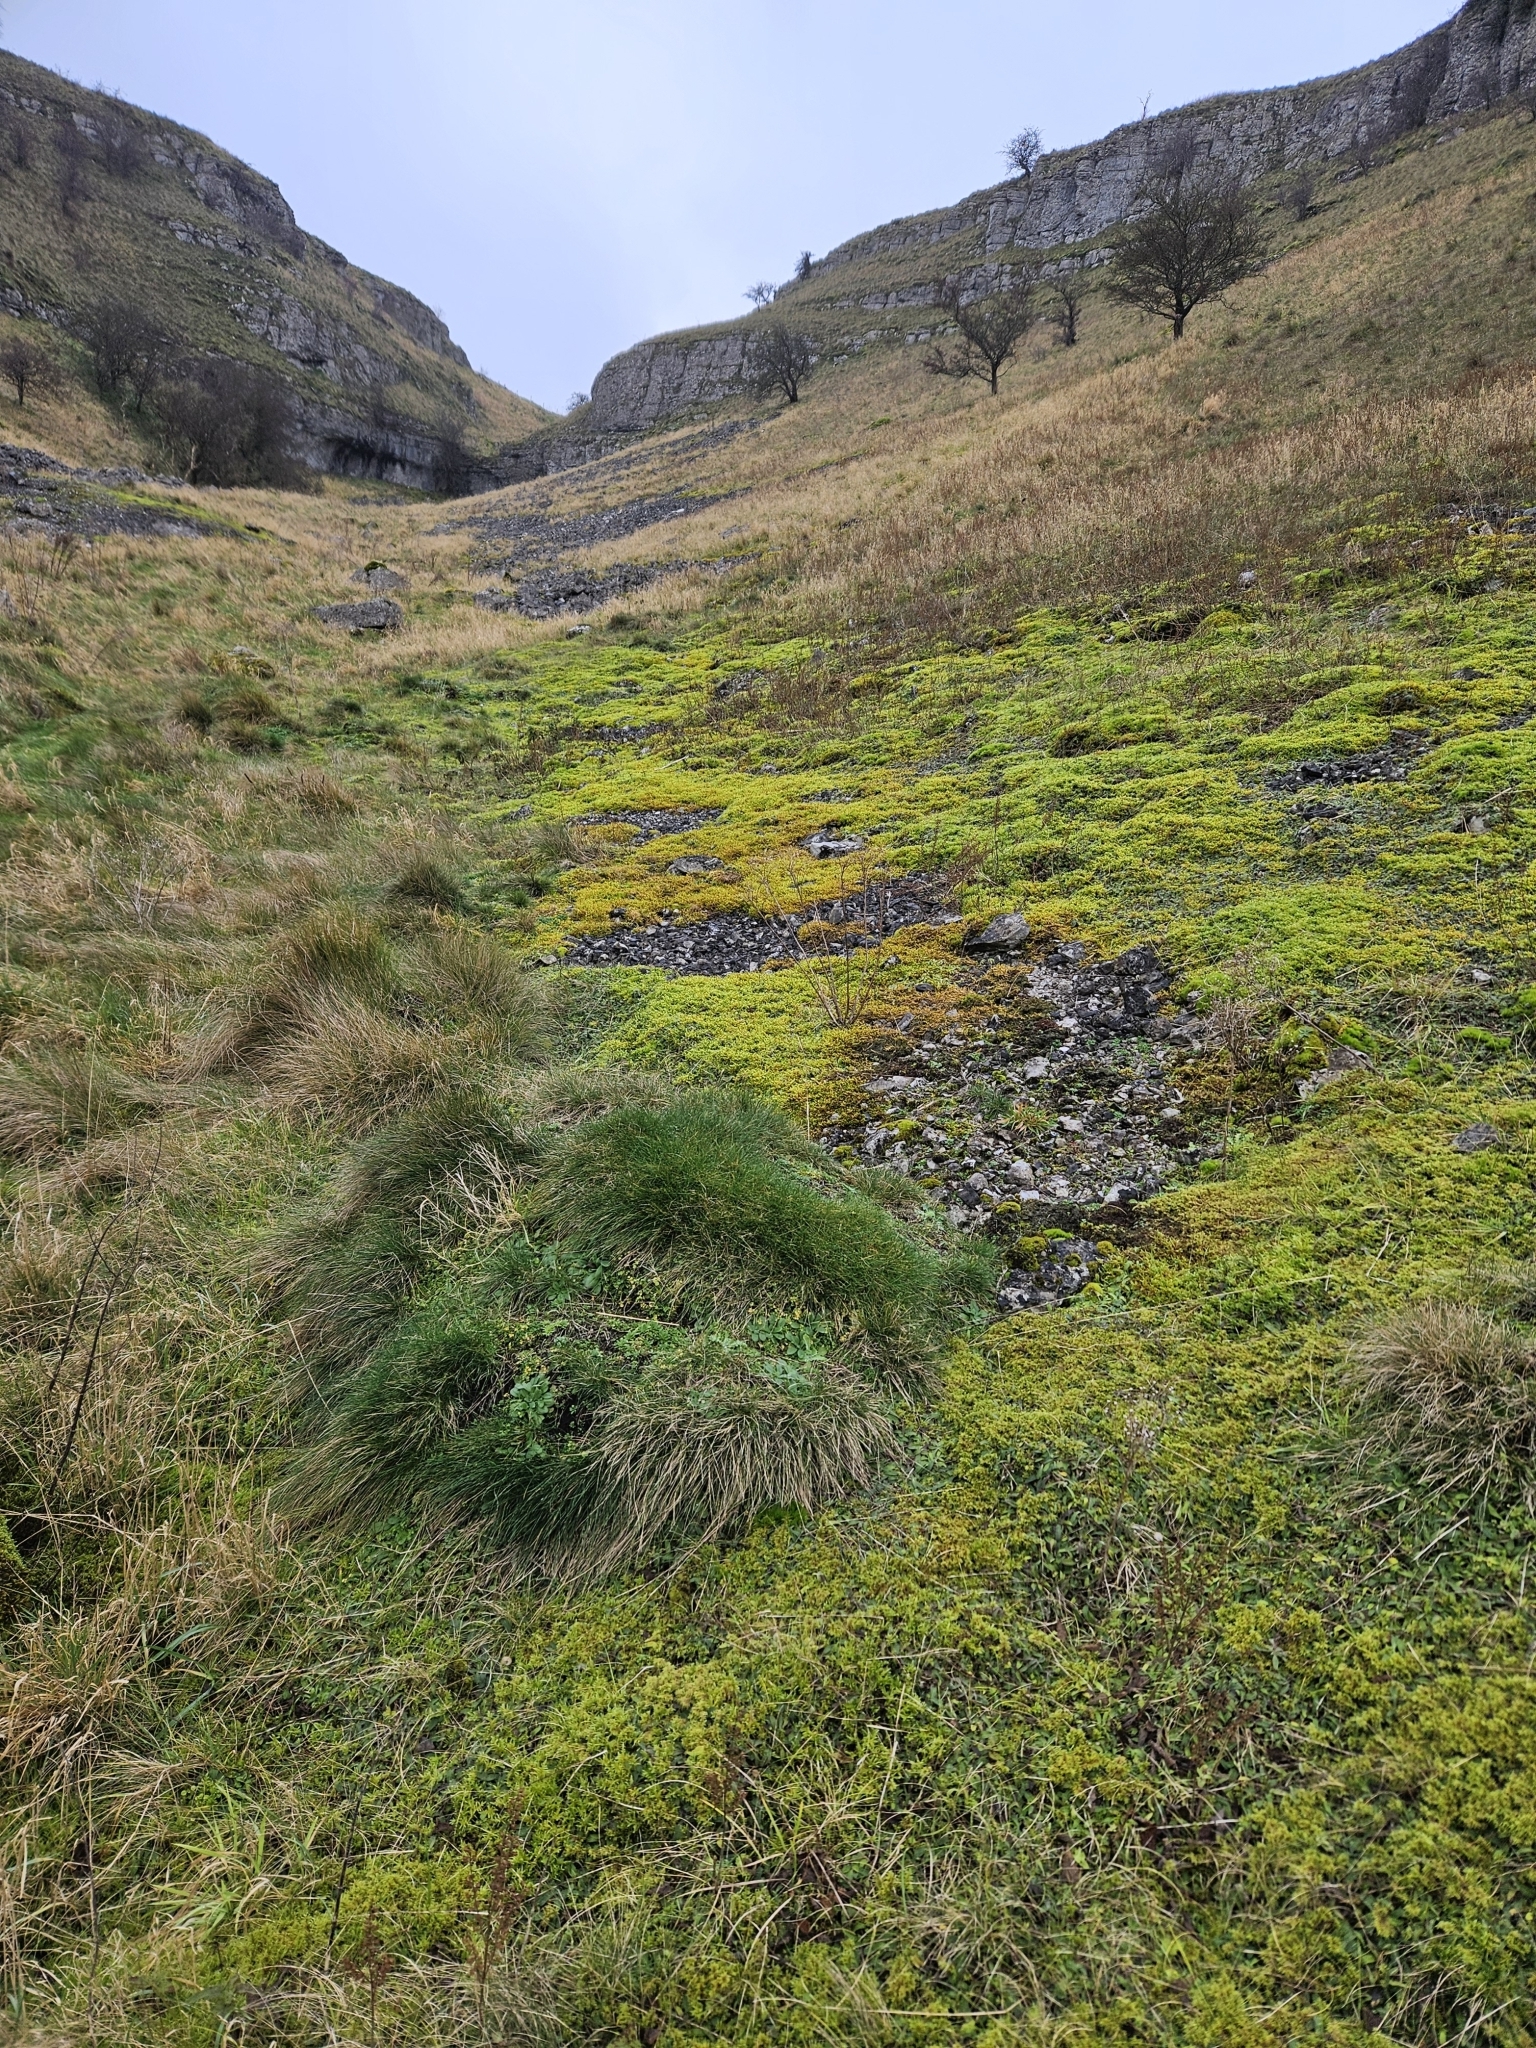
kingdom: Plantae
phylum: Bryophyta
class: Bryopsida
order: Hypnales
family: Rhytidiaceae
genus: Rhytidium
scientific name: Rhytidium rugosum
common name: Wrinkle-leaved moss
